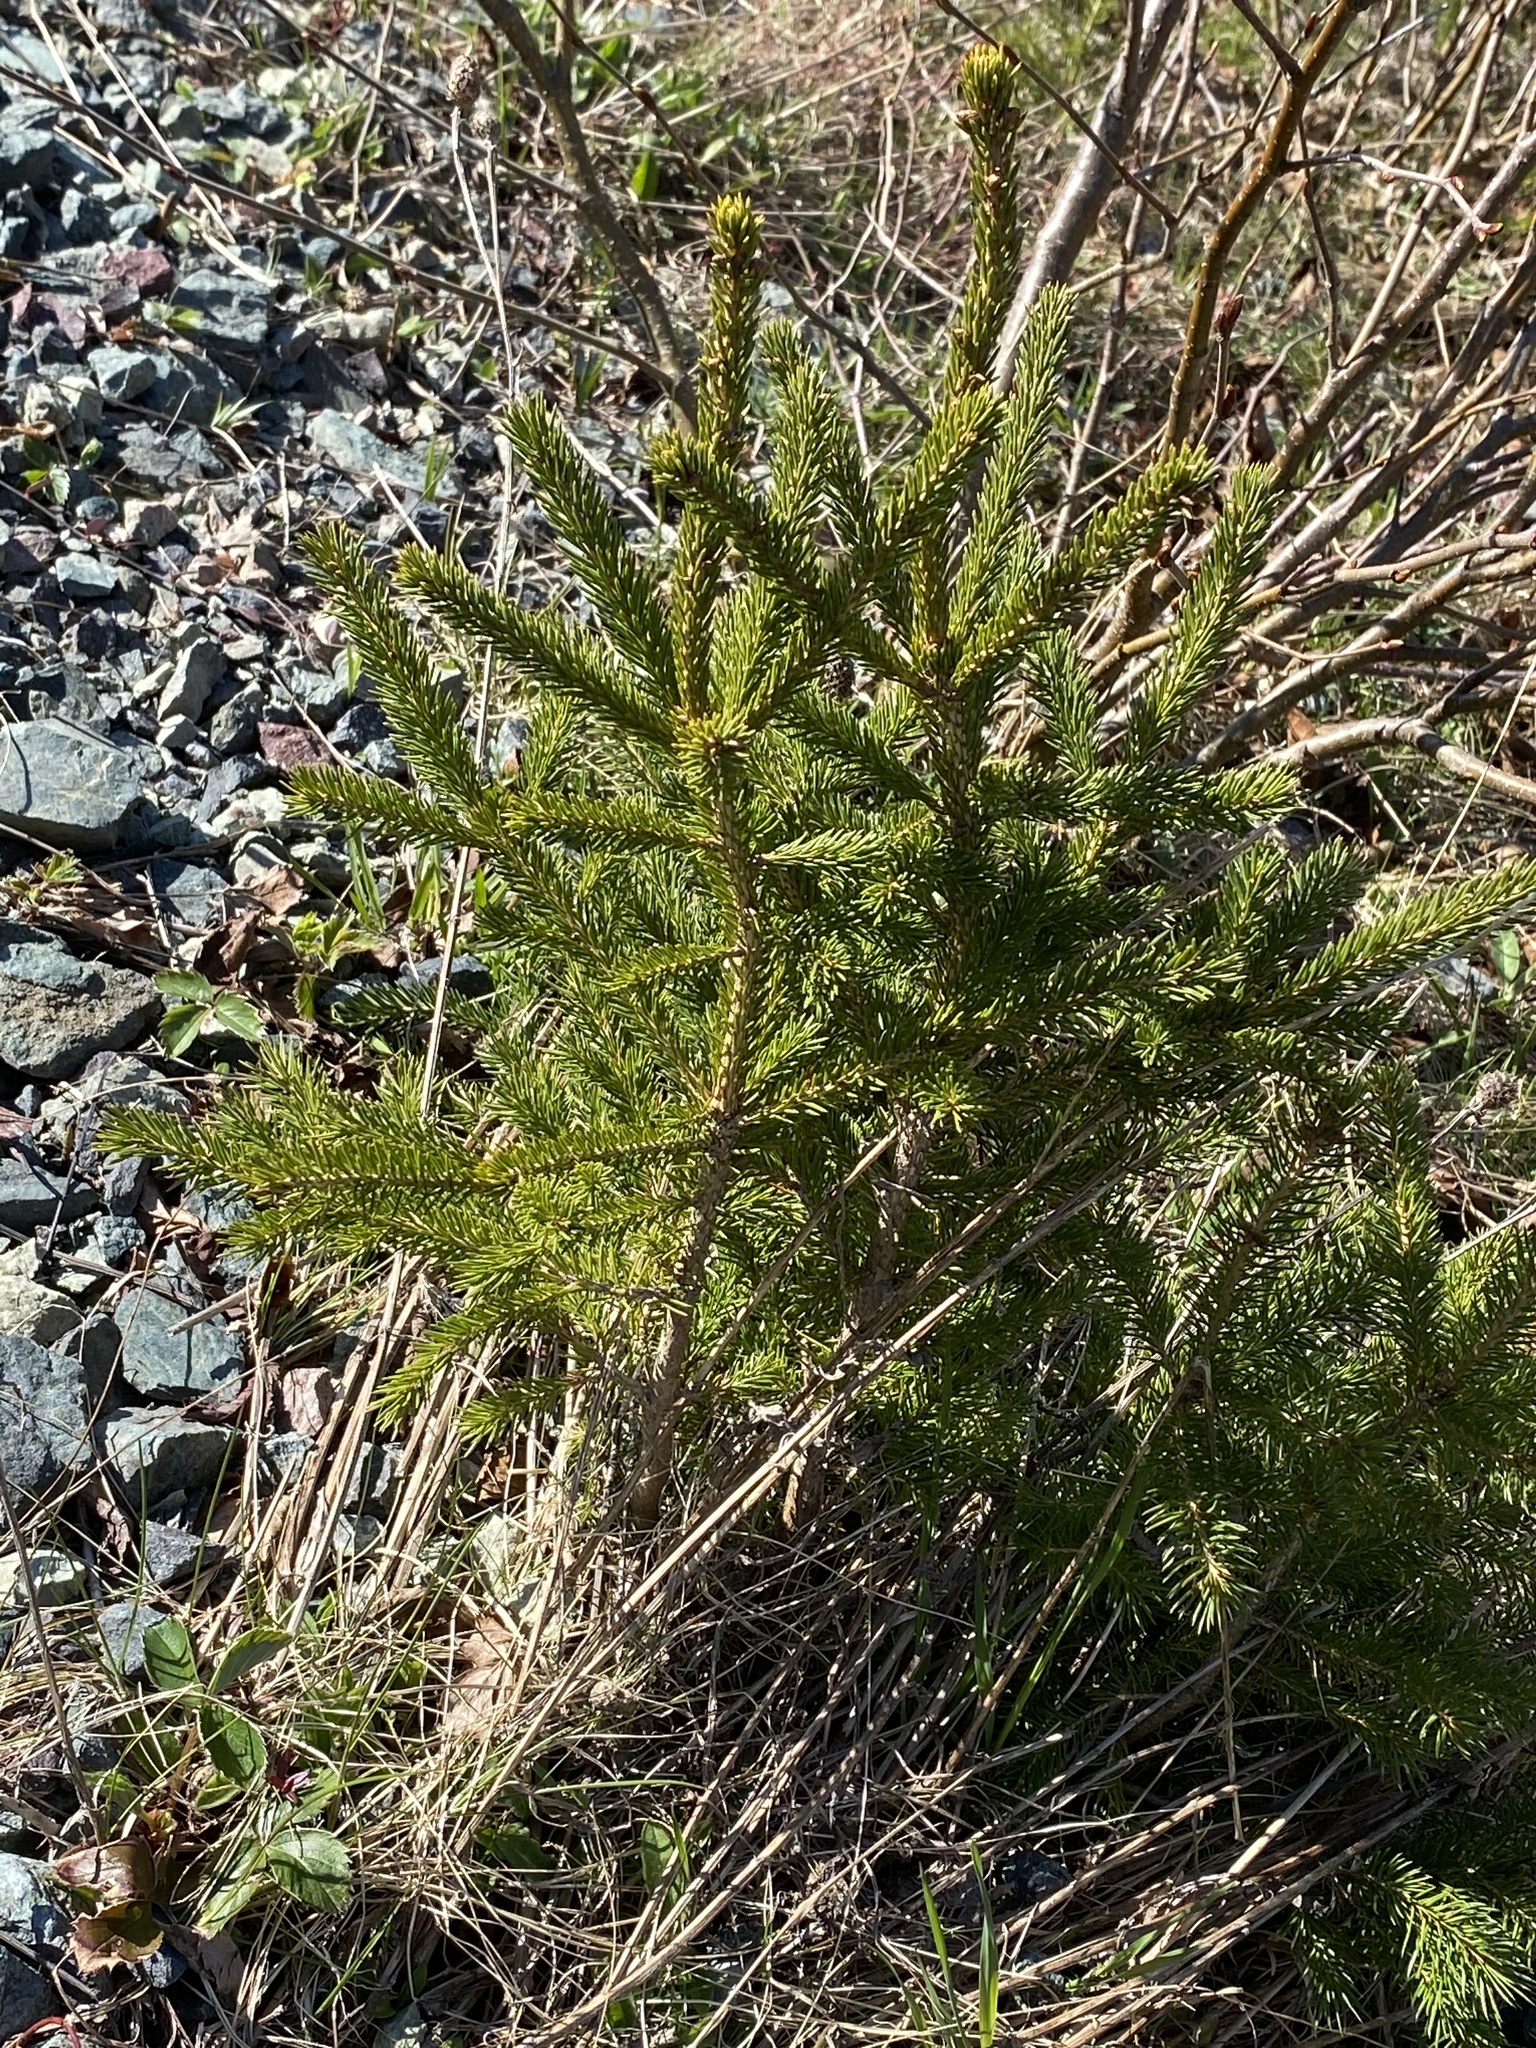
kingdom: Plantae
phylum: Tracheophyta
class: Pinopsida
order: Pinales
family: Pinaceae
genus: Picea
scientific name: Picea glauca
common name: White spruce
